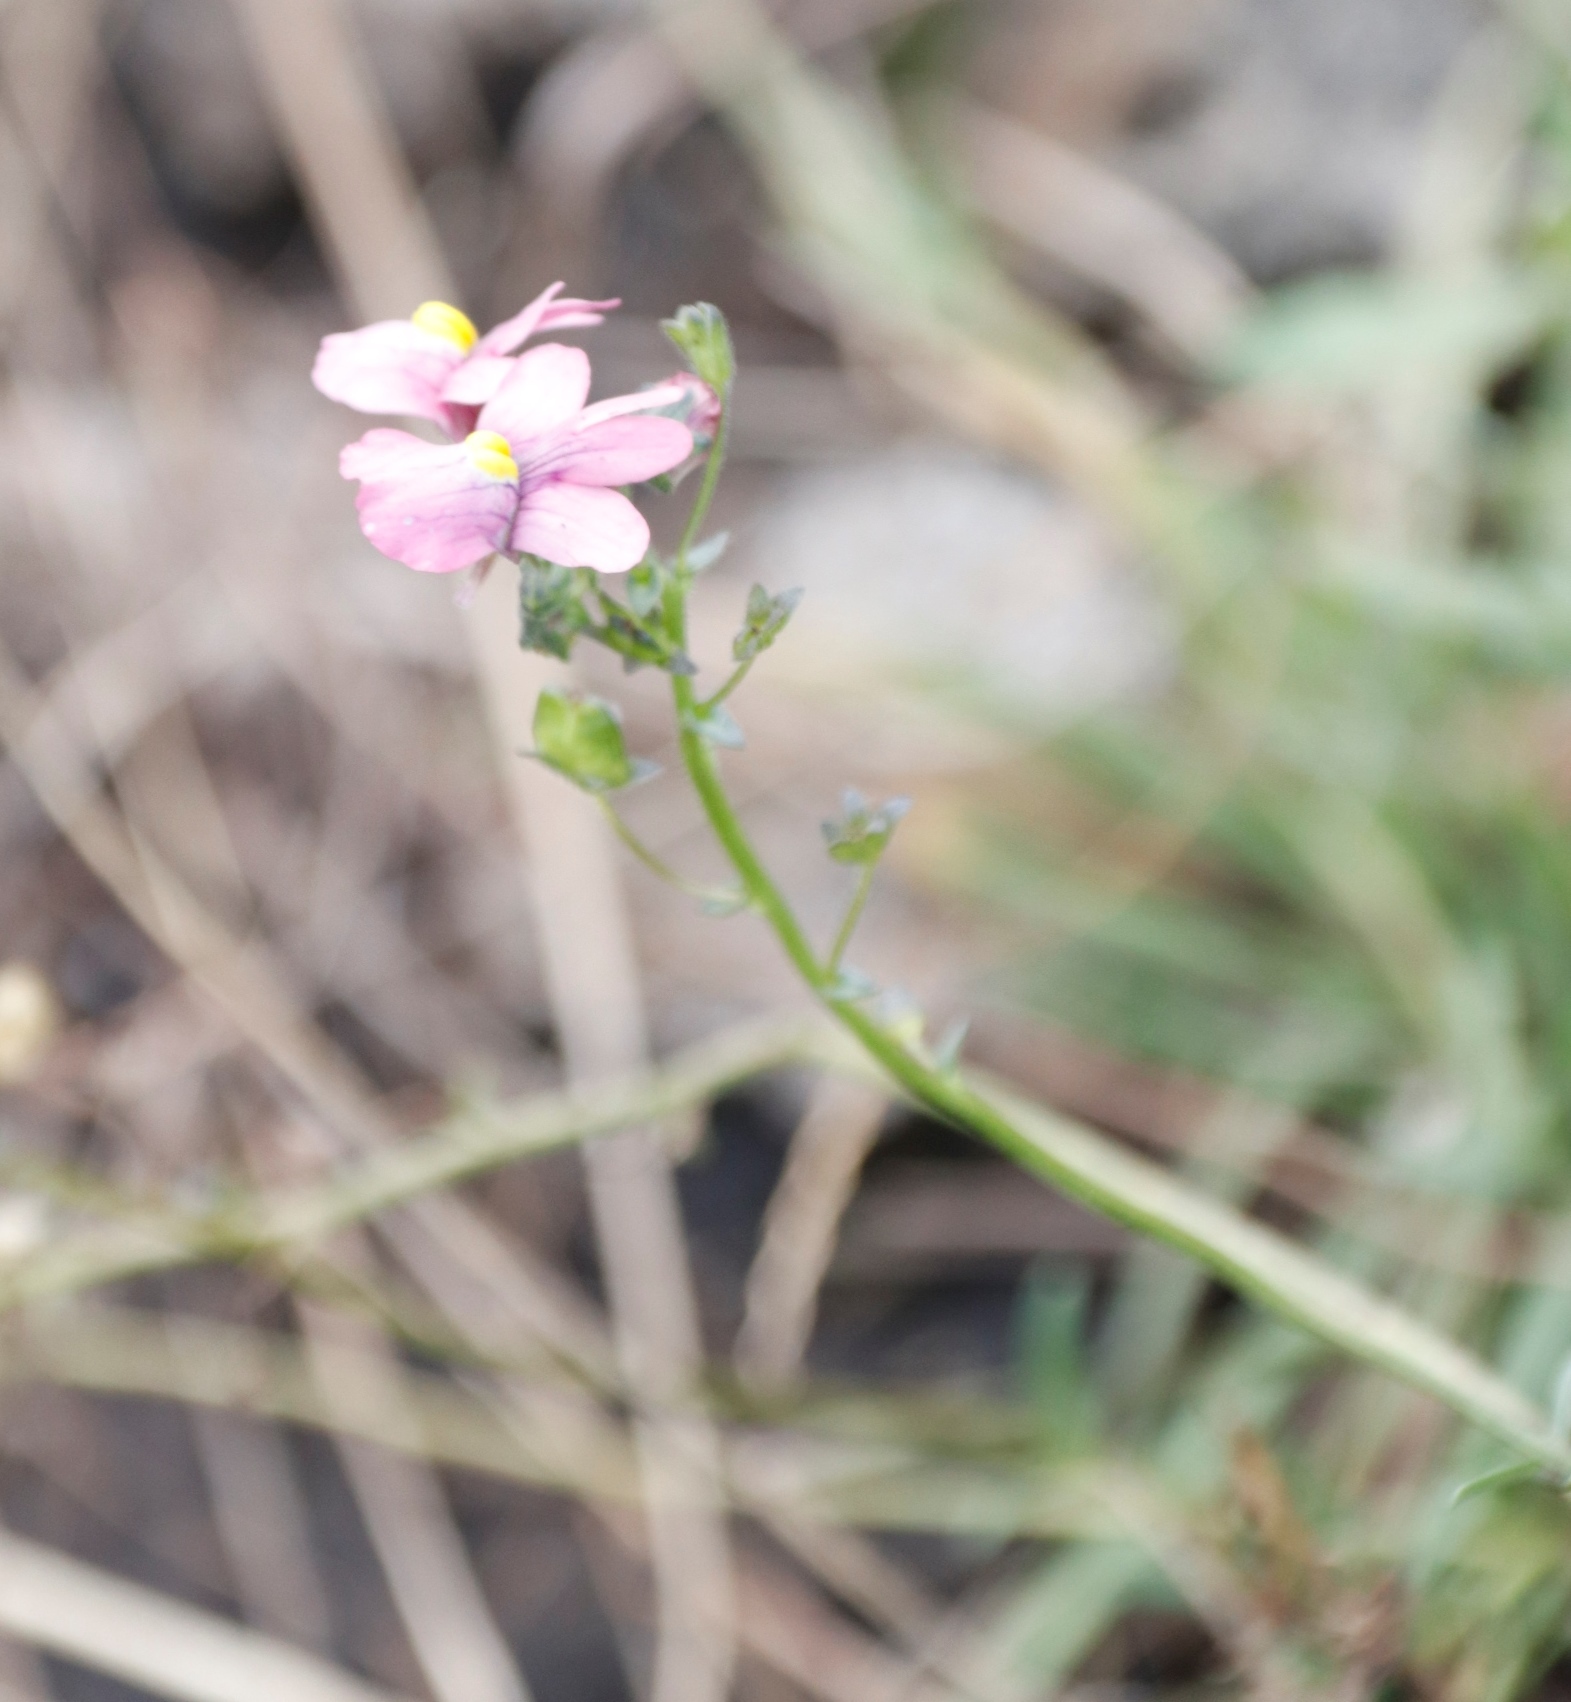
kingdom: Plantae
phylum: Tracheophyta
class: Magnoliopsida
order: Lamiales
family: Scrophulariaceae
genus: Nemesia
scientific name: Nemesia fruticans
